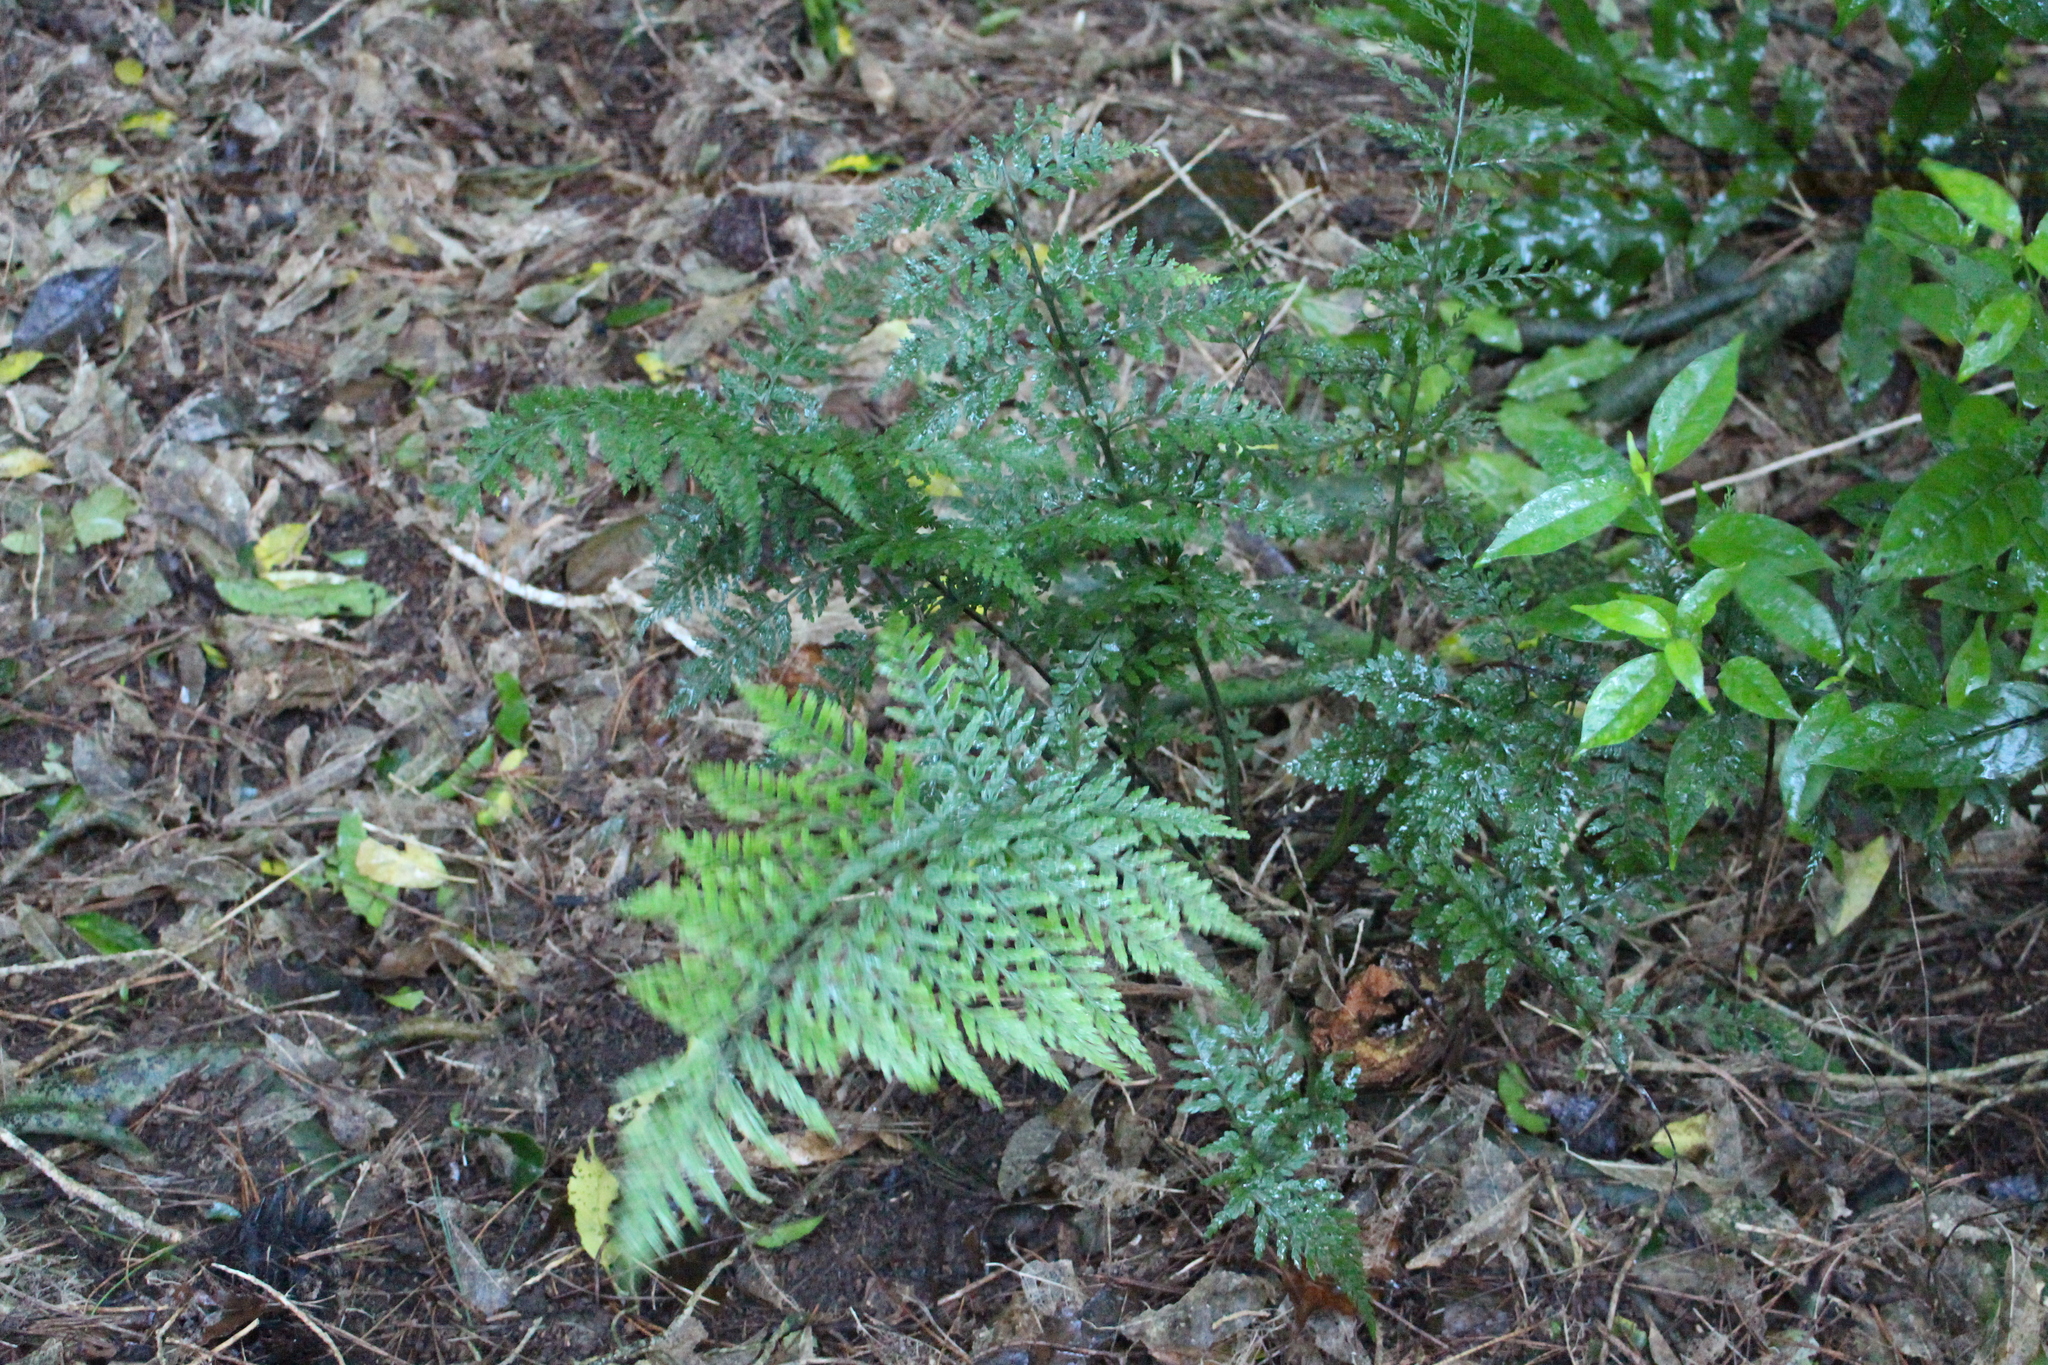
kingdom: Plantae
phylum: Tracheophyta
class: Polypodiopsida
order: Polypodiales
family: Aspleniaceae
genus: Asplenium
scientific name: Asplenium
